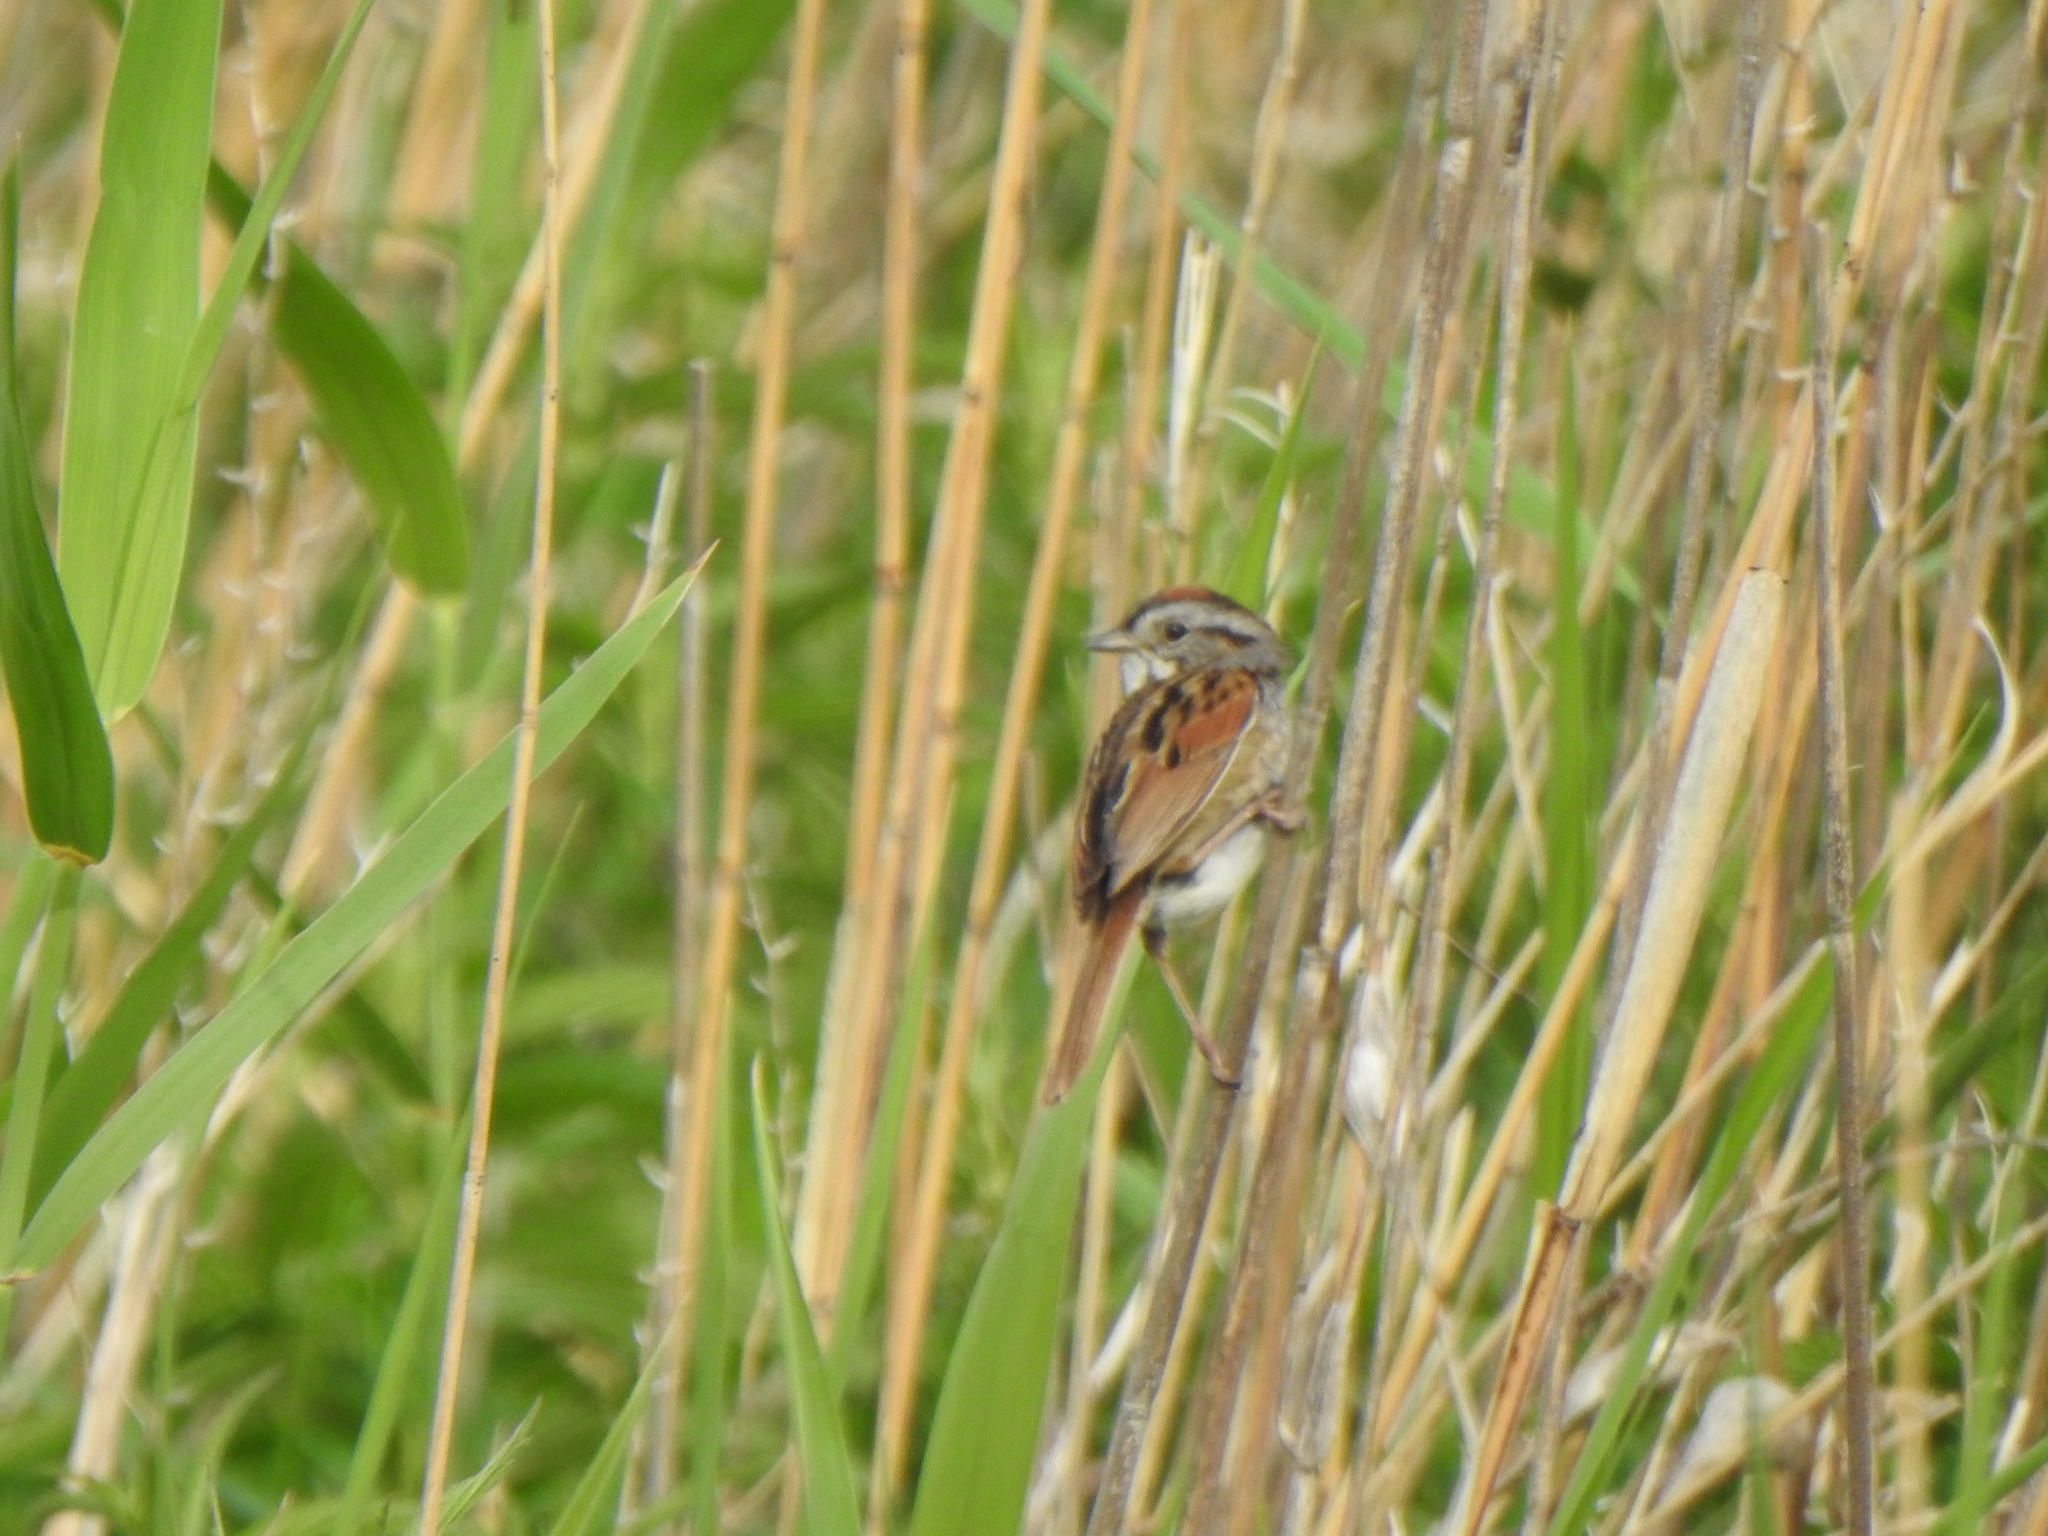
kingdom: Animalia
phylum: Chordata
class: Aves
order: Passeriformes
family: Passerellidae
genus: Melospiza
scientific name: Melospiza georgiana
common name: Swamp sparrow
